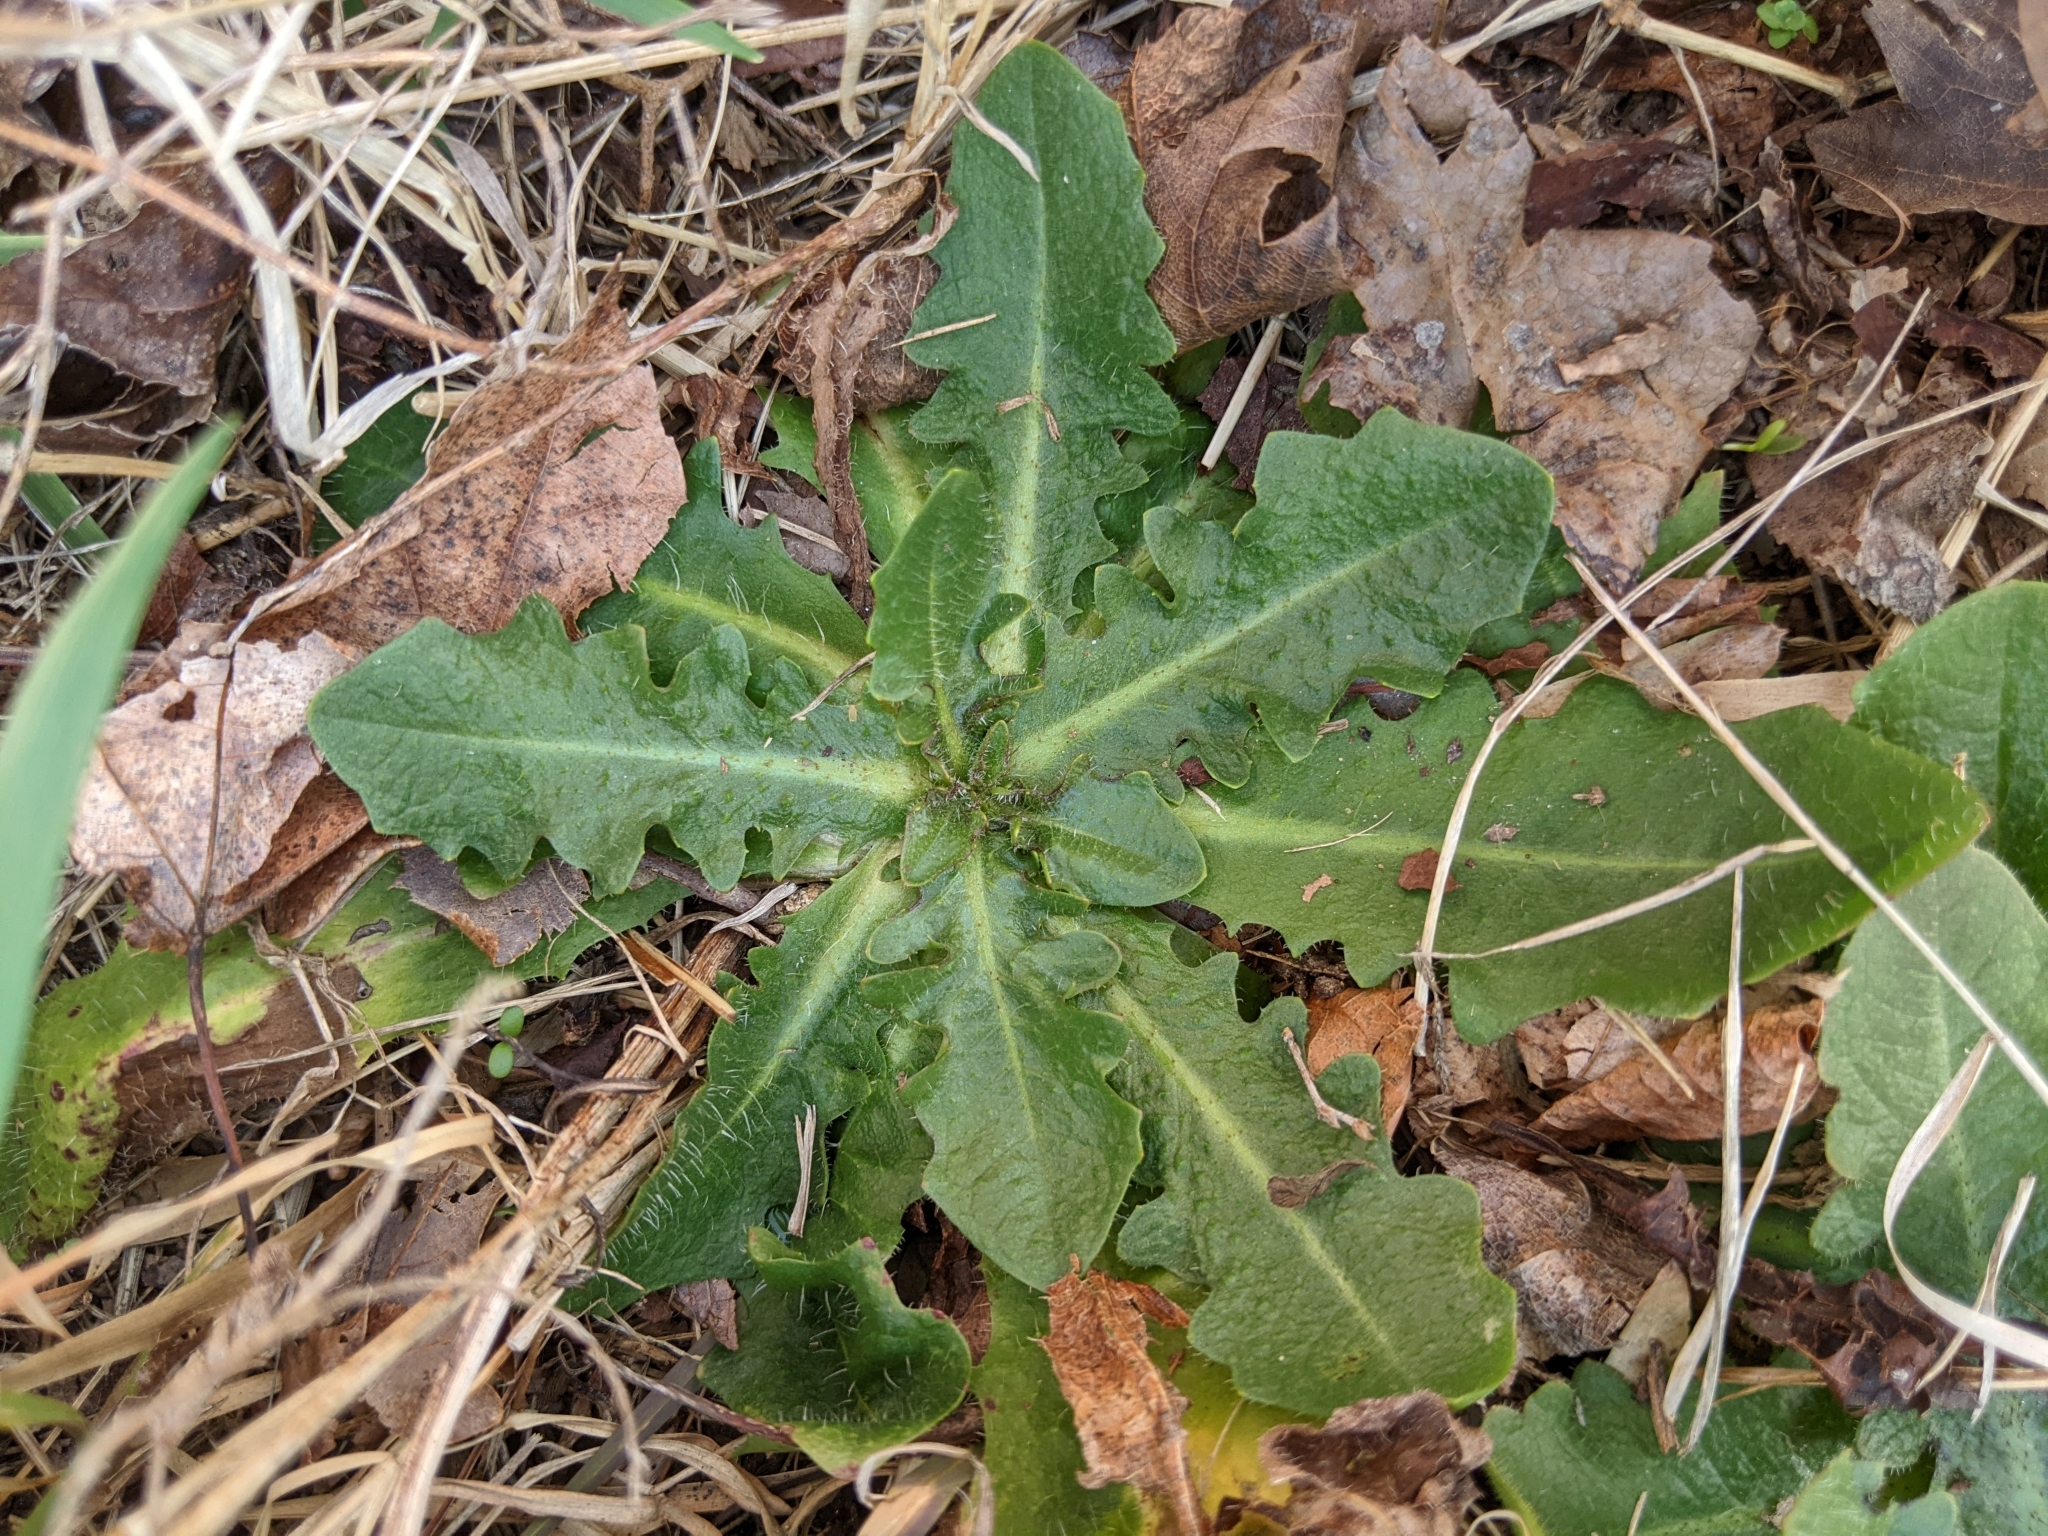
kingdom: Plantae
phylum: Tracheophyta
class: Magnoliopsida
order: Asterales
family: Asteraceae
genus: Hypochaeris
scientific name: Hypochaeris radicata
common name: Flatweed
